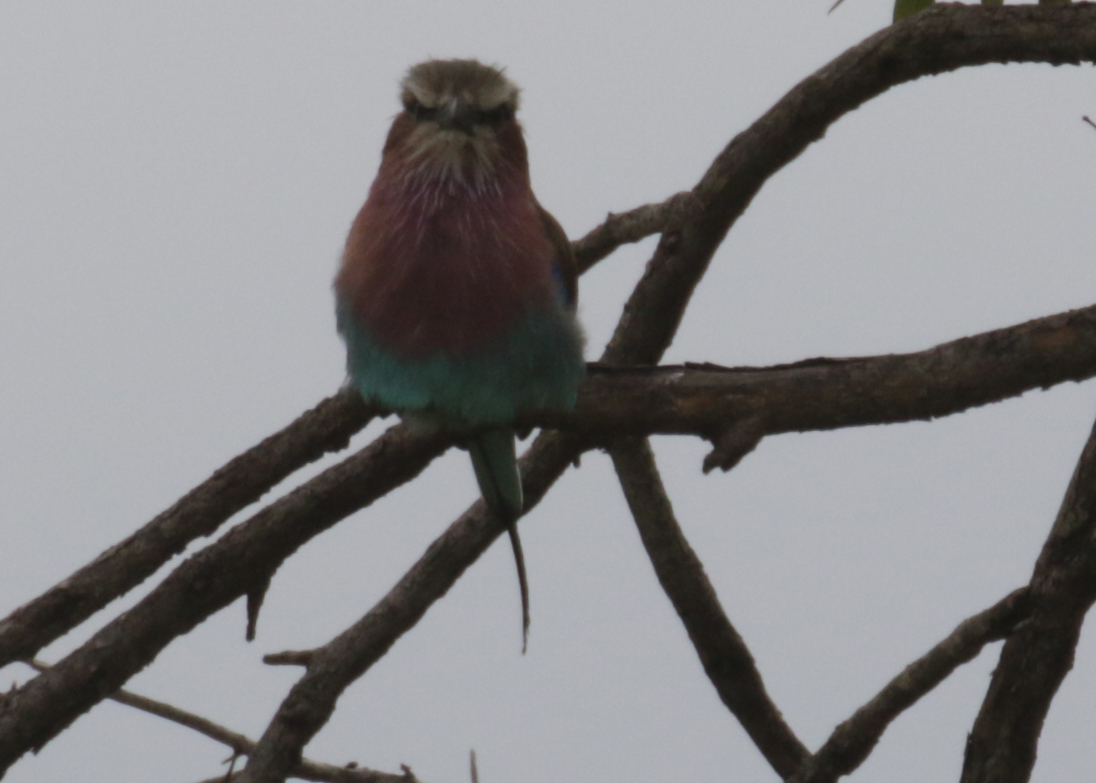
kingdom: Animalia
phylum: Chordata
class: Aves
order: Coraciiformes
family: Coraciidae
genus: Coracias
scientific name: Coracias caudatus
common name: Lilac-breasted roller
